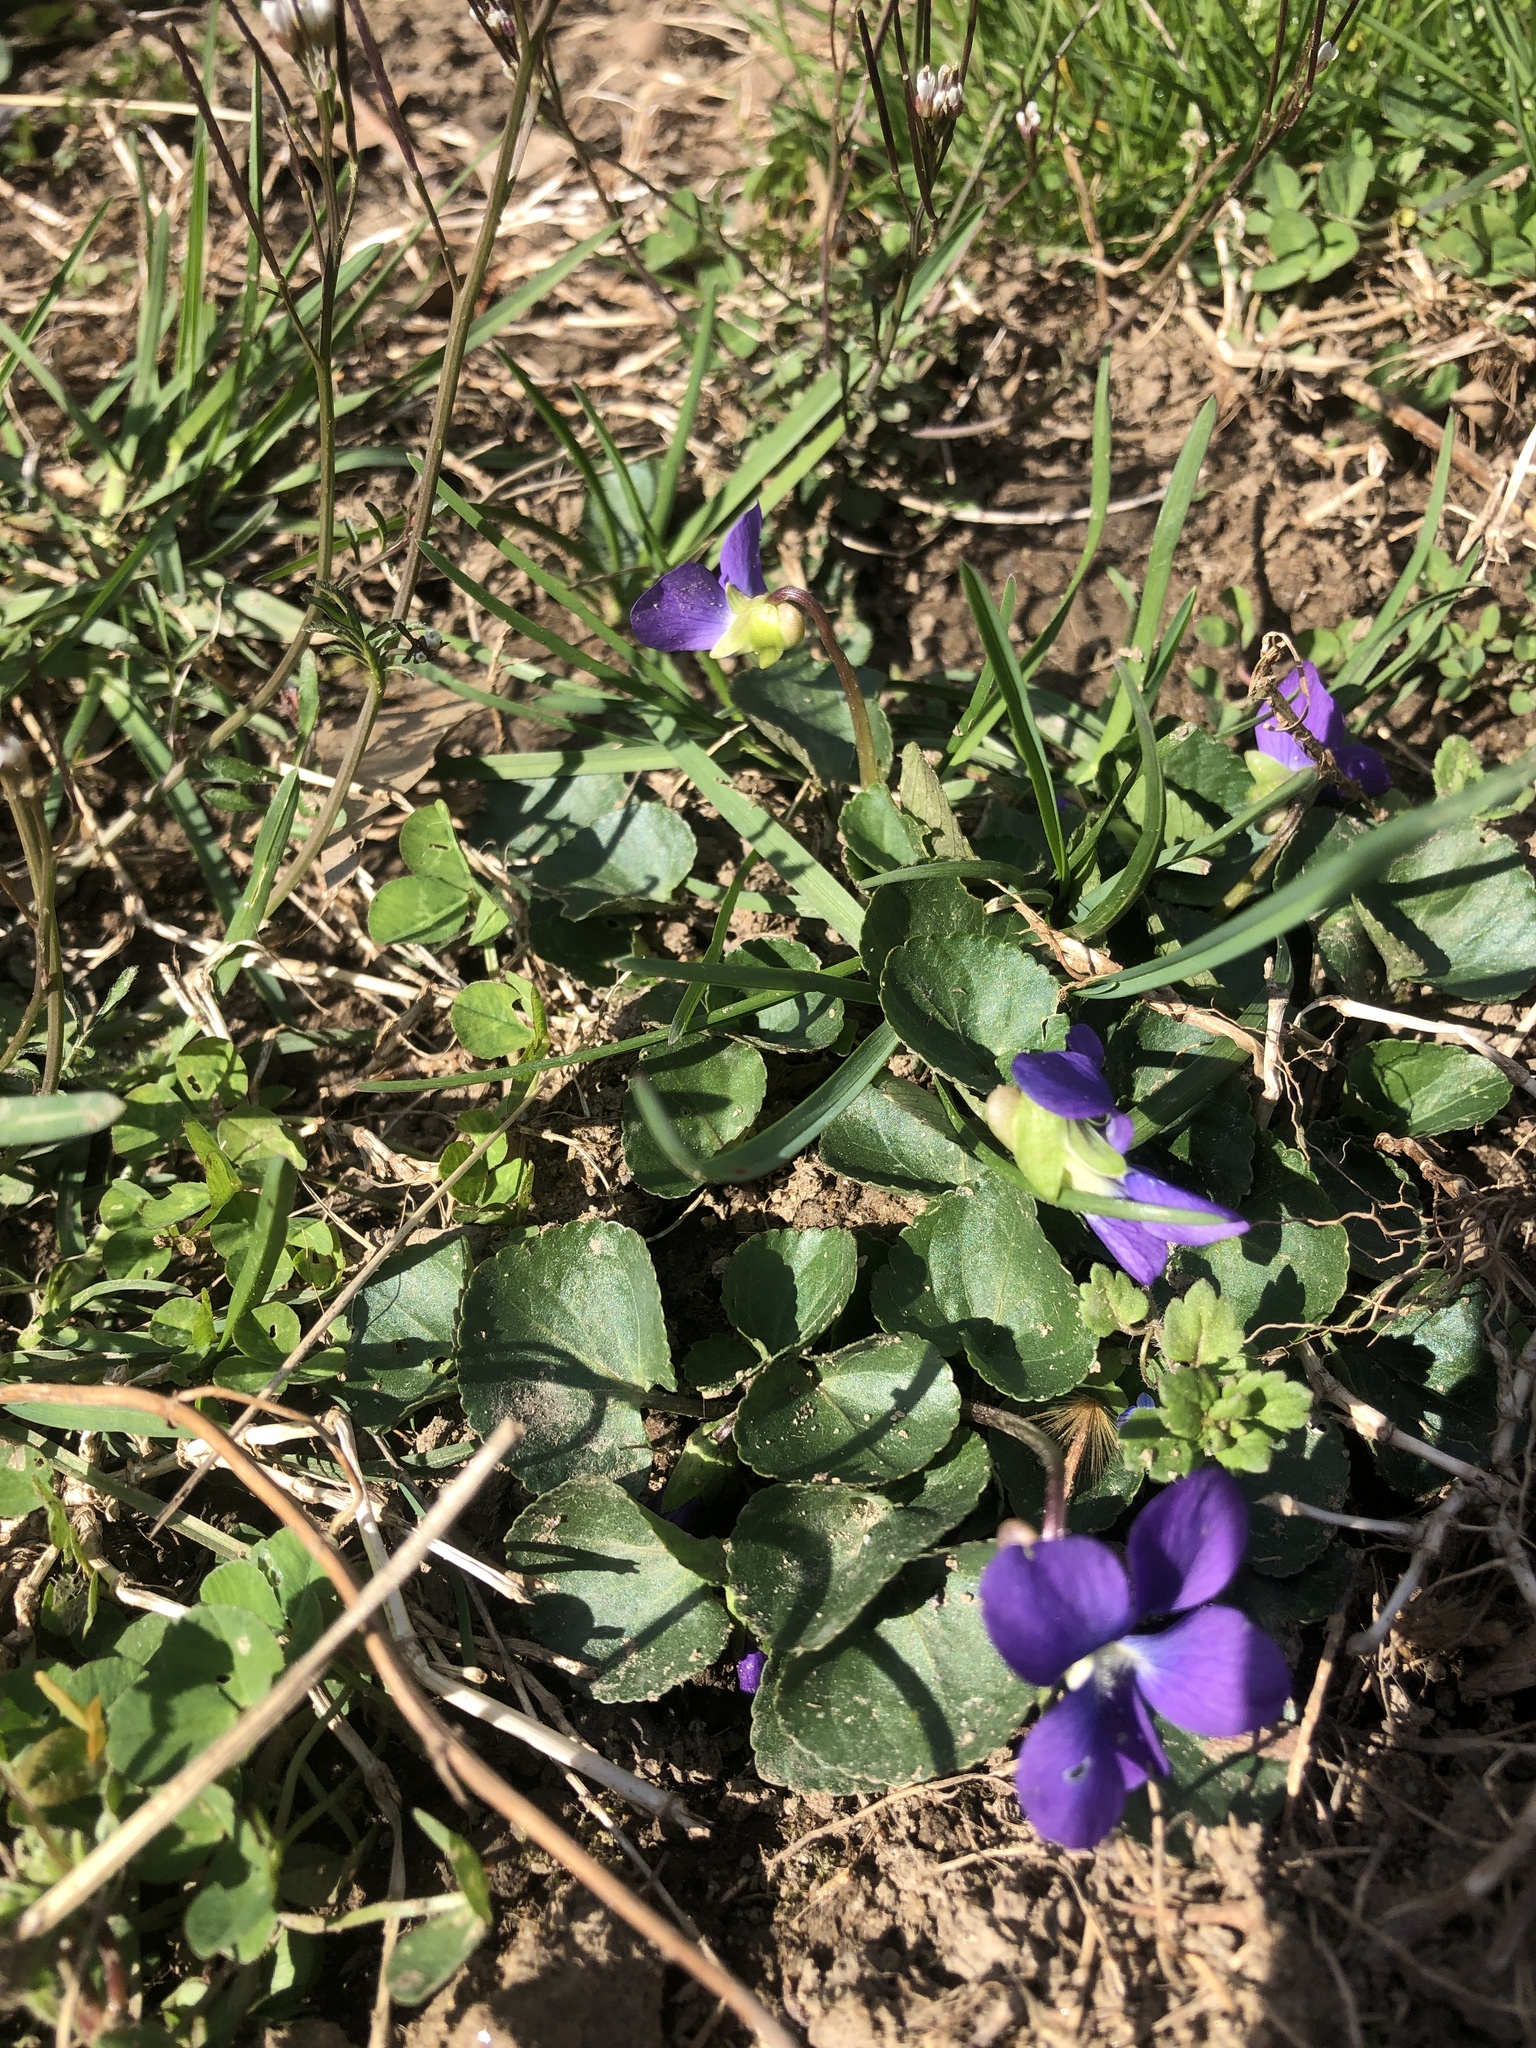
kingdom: Plantae
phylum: Tracheophyta
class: Magnoliopsida
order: Malpighiales
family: Violaceae
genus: Viola
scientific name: Viola sororia
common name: Dooryard violet
